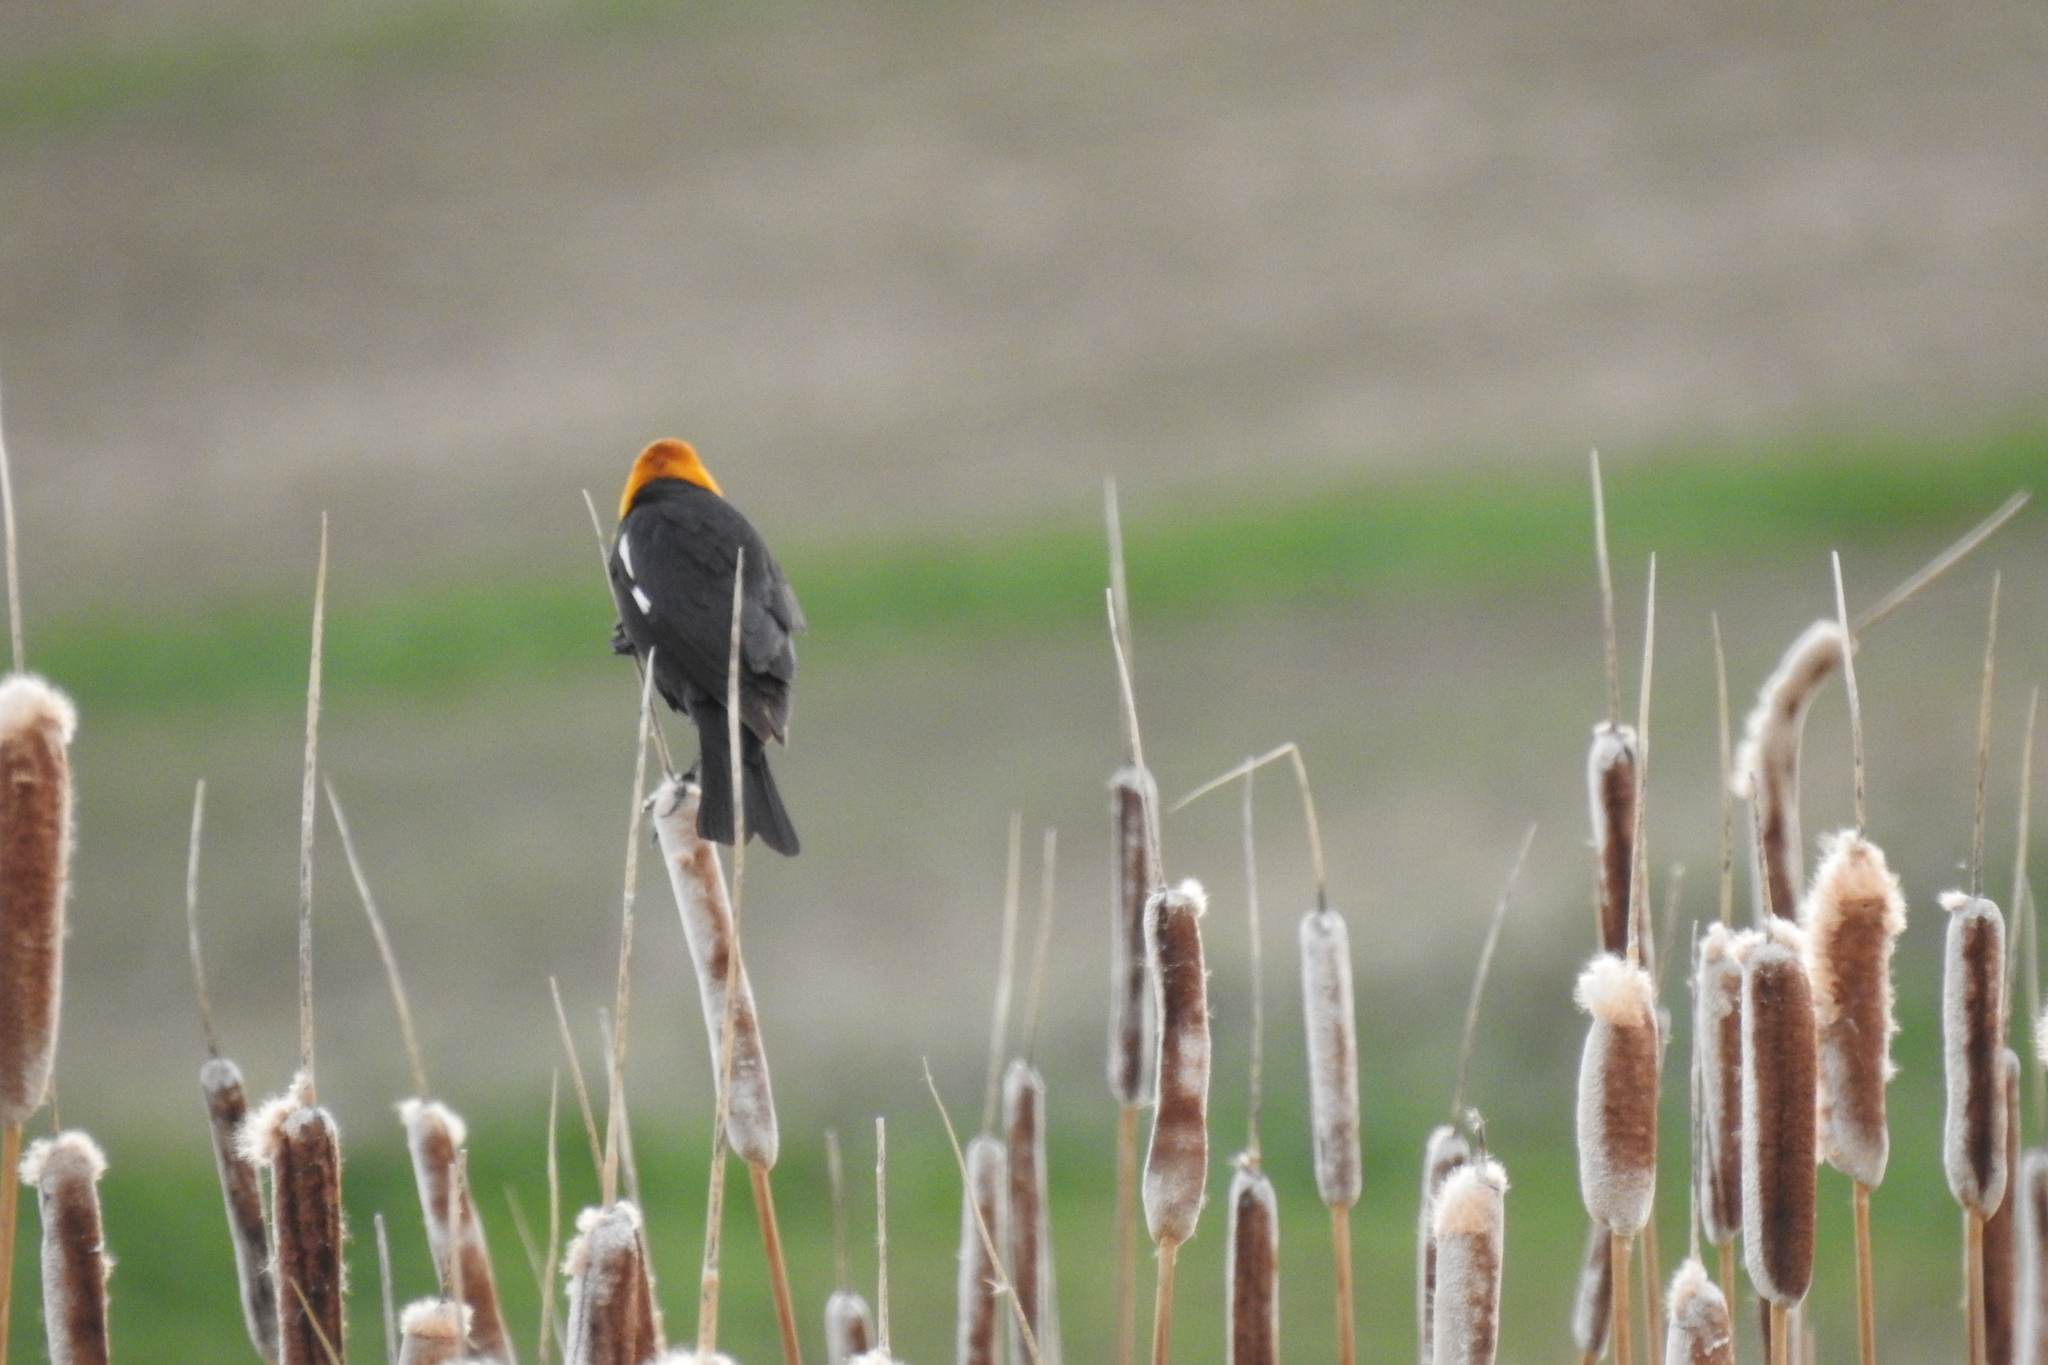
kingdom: Animalia
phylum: Chordata
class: Aves
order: Passeriformes
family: Icteridae
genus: Xanthocephalus
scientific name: Xanthocephalus xanthocephalus
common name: Yellow-headed blackbird
